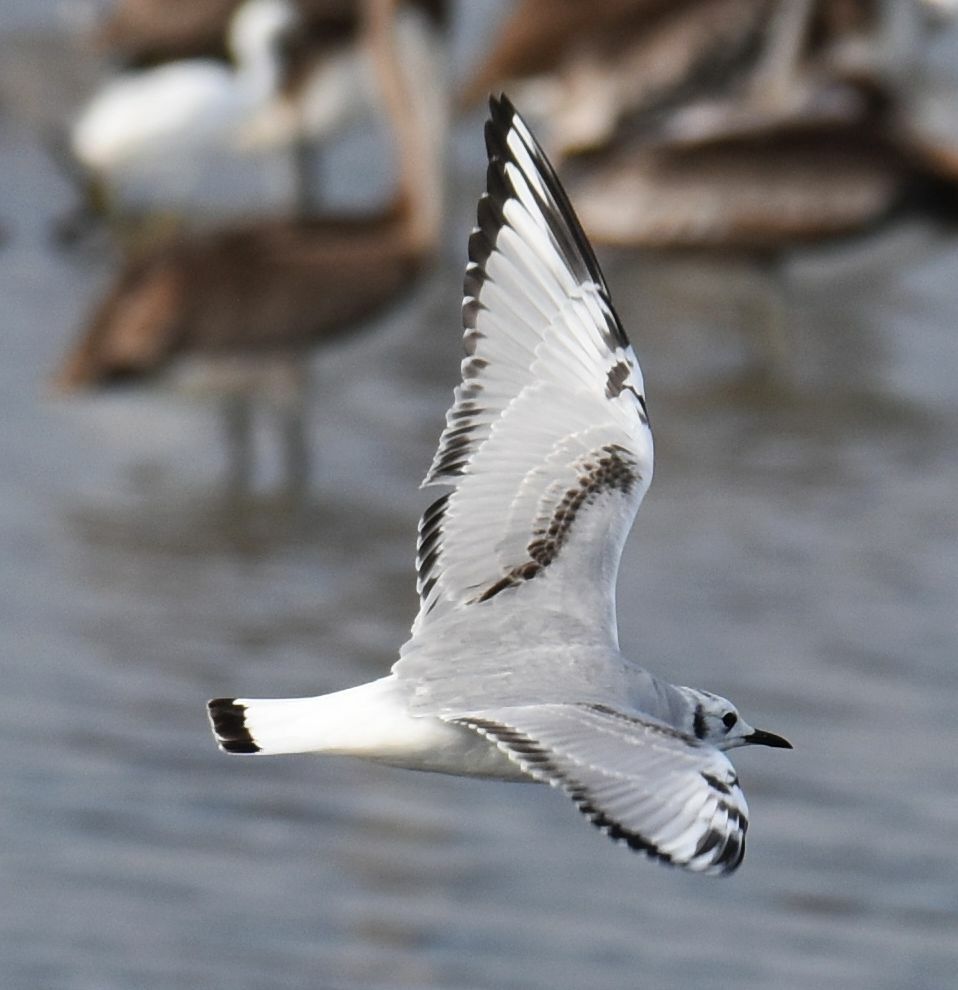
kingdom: Animalia
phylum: Chordata
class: Aves
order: Charadriiformes
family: Laridae
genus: Chroicocephalus
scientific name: Chroicocephalus philadelphia
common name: Bonaparte's gull
